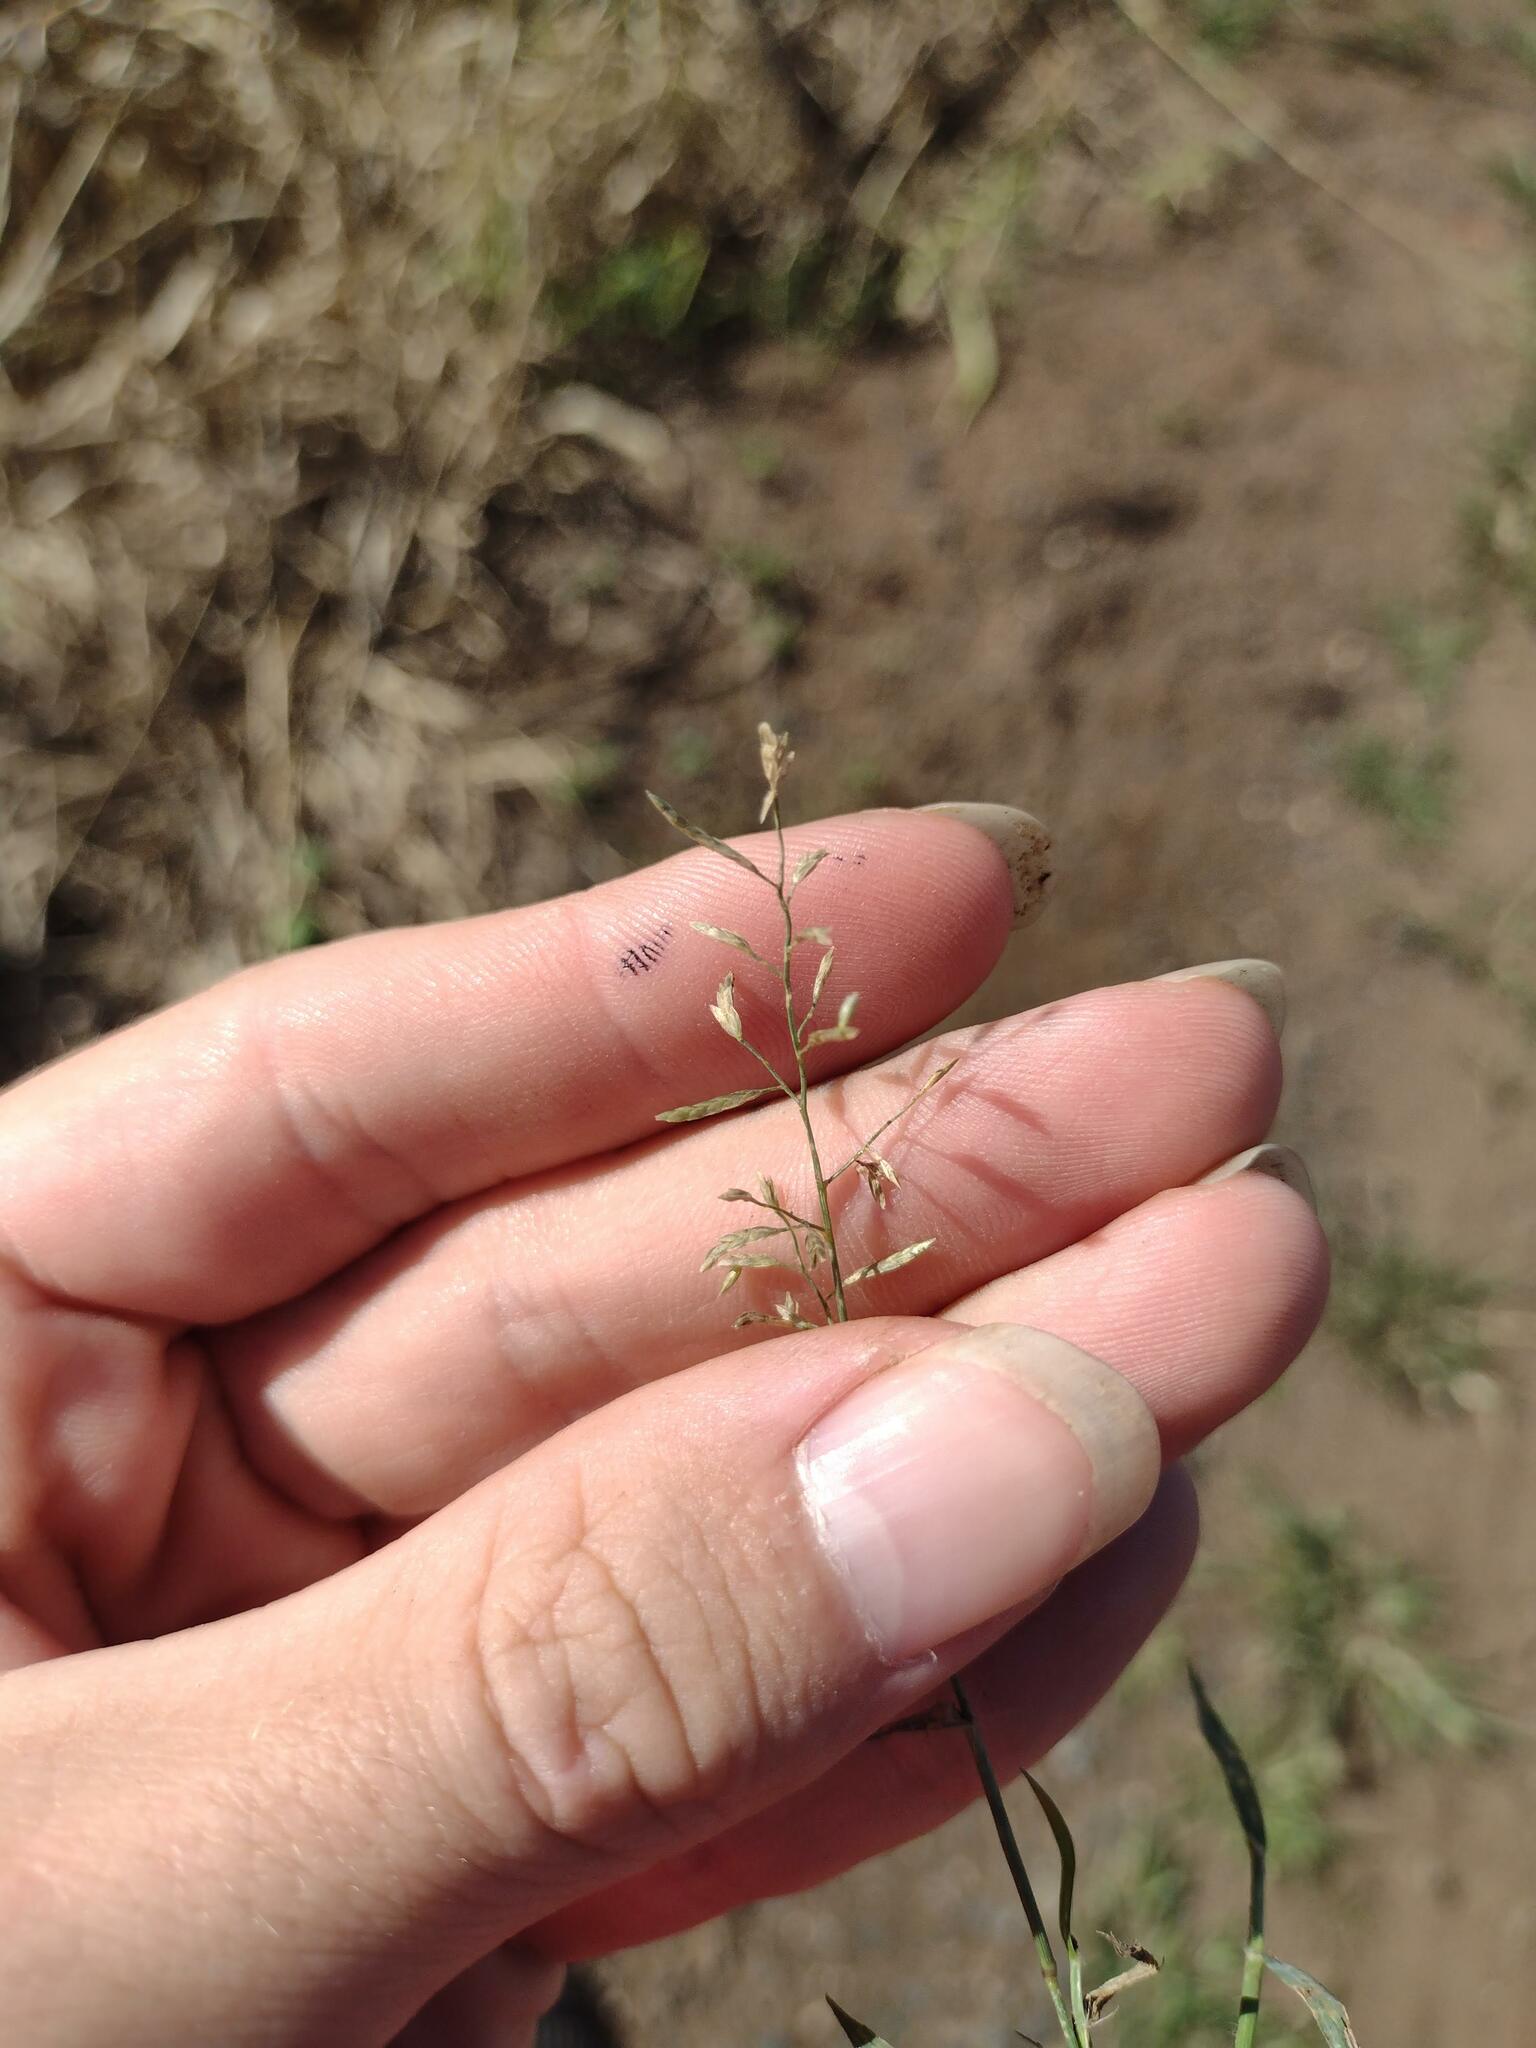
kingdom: Plantae
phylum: Tracheophyta
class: Liliopsida
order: Poales
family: Poaceae
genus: Eragrostis
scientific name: Eragrostis barrelieri
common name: Mediterranean lovegrass
